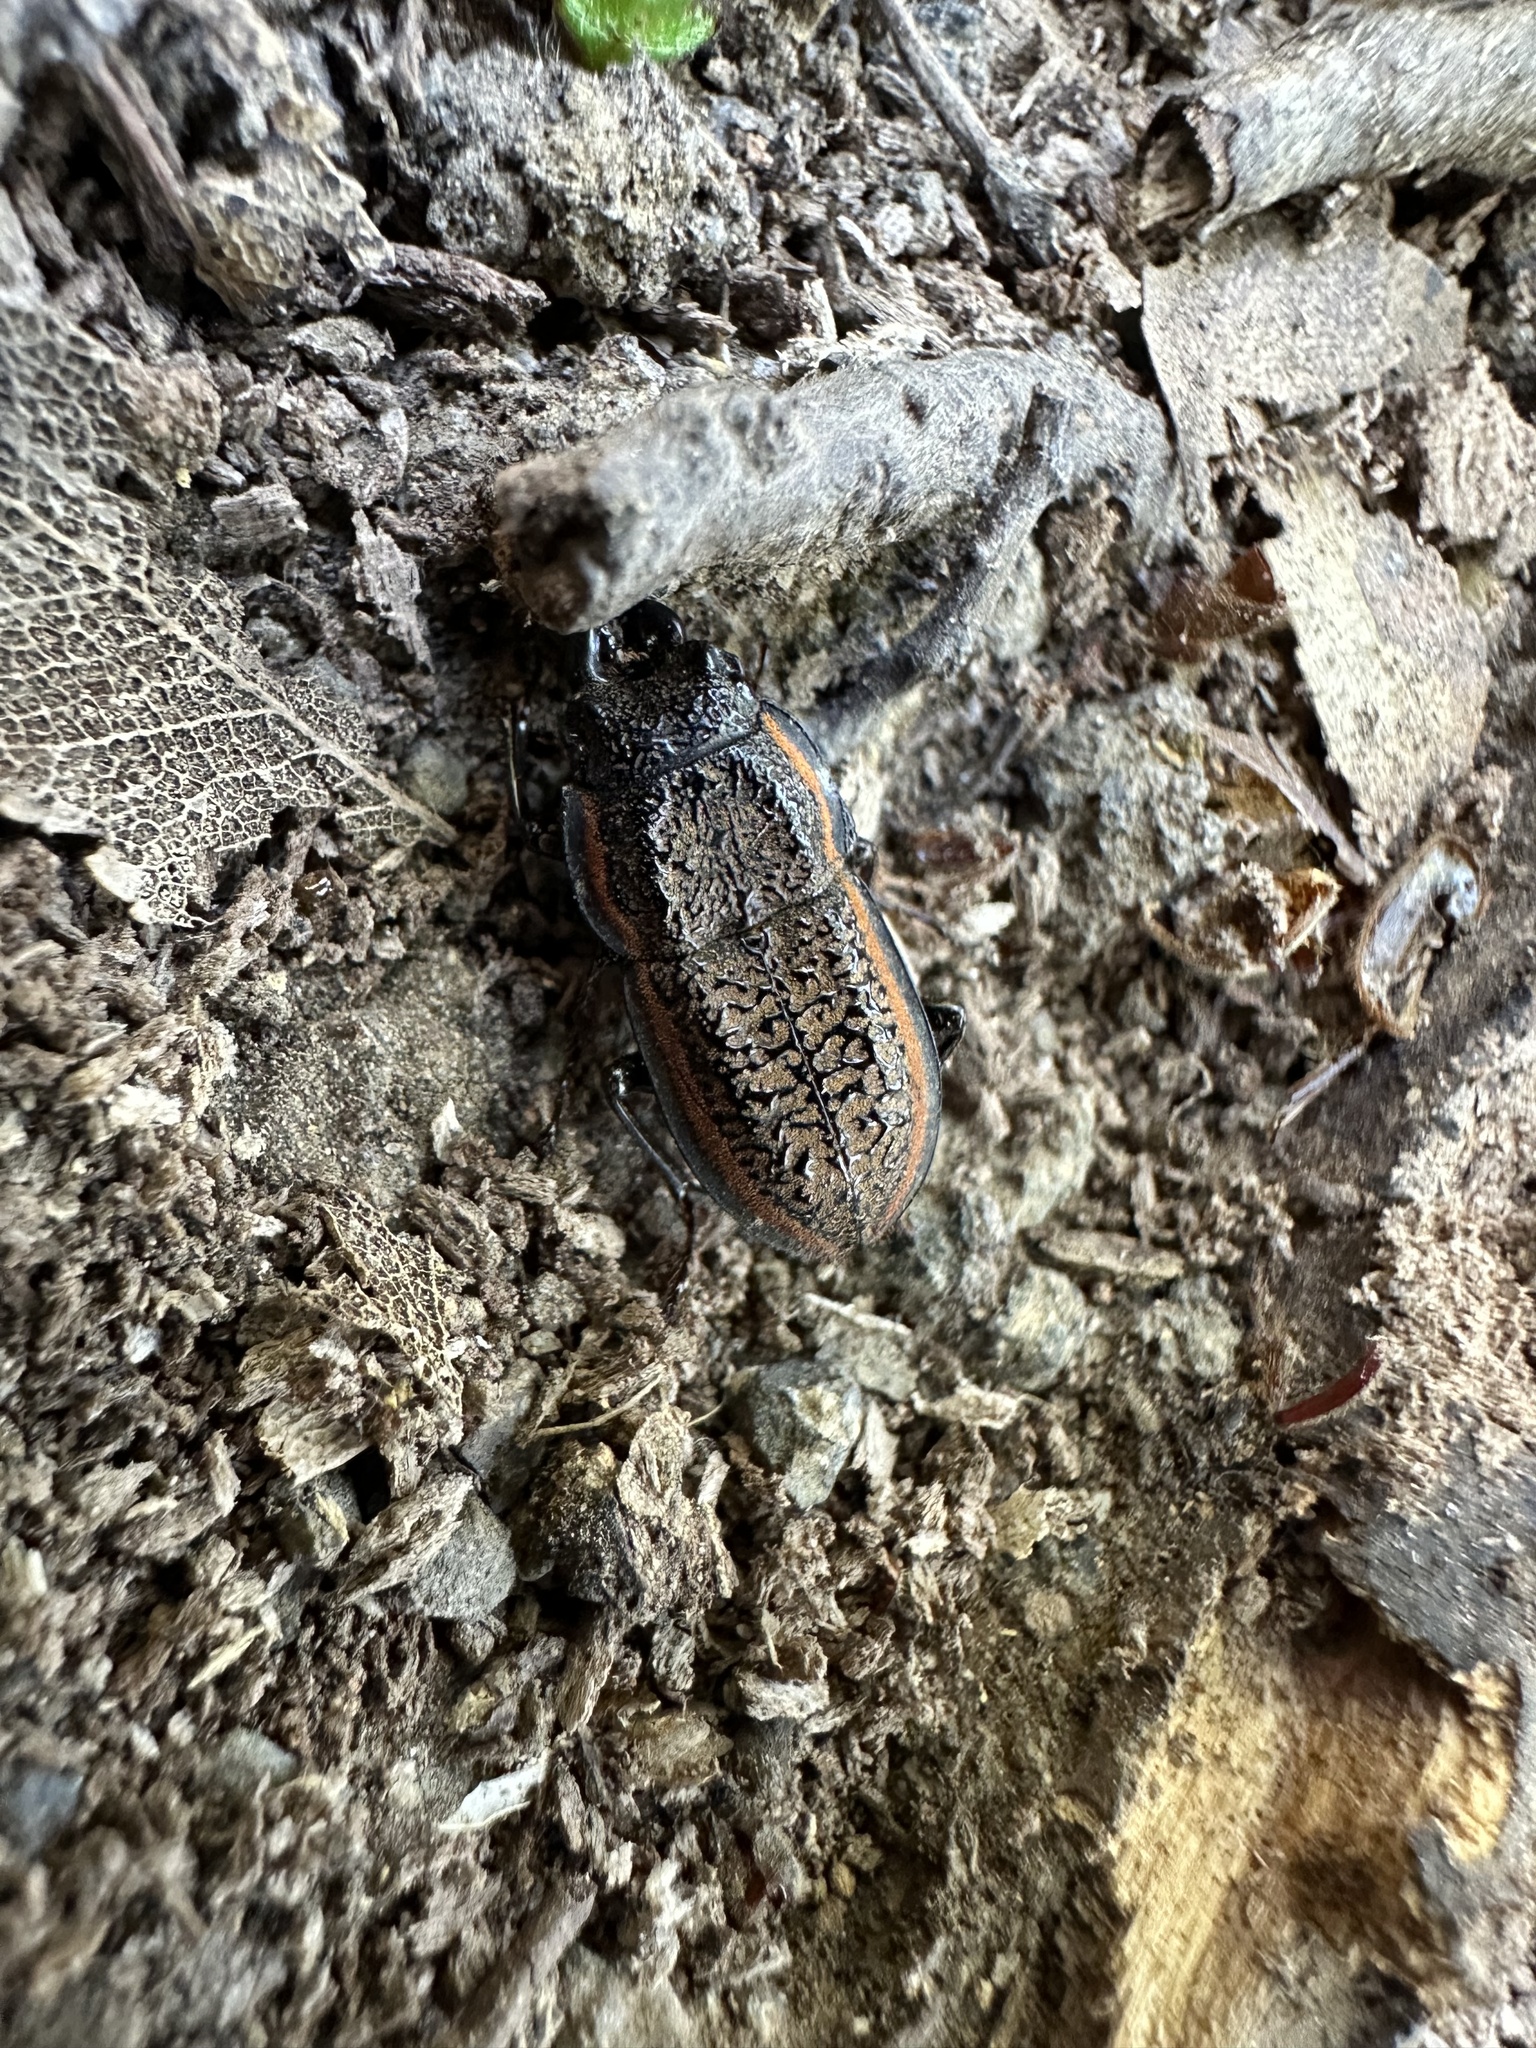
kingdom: Animalia
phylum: Arthropoda
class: Insecta
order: Coleoptera
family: Lucanidae
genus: Erichius
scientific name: Erichius caelatus
